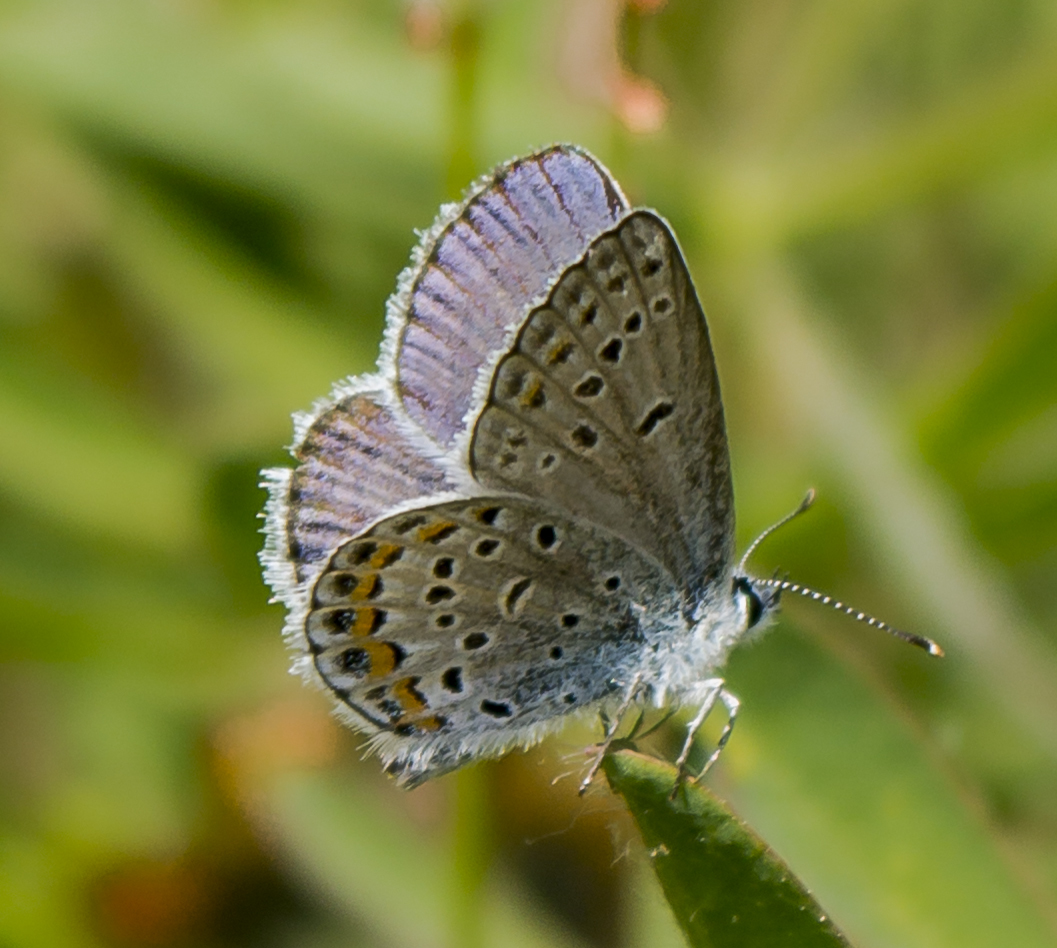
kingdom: Animalia
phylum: Arthropoda
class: Insecta
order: Lepidoptera
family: Lycaenidae
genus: Plebejus
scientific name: Plebejus samuelis
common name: Karner blue
